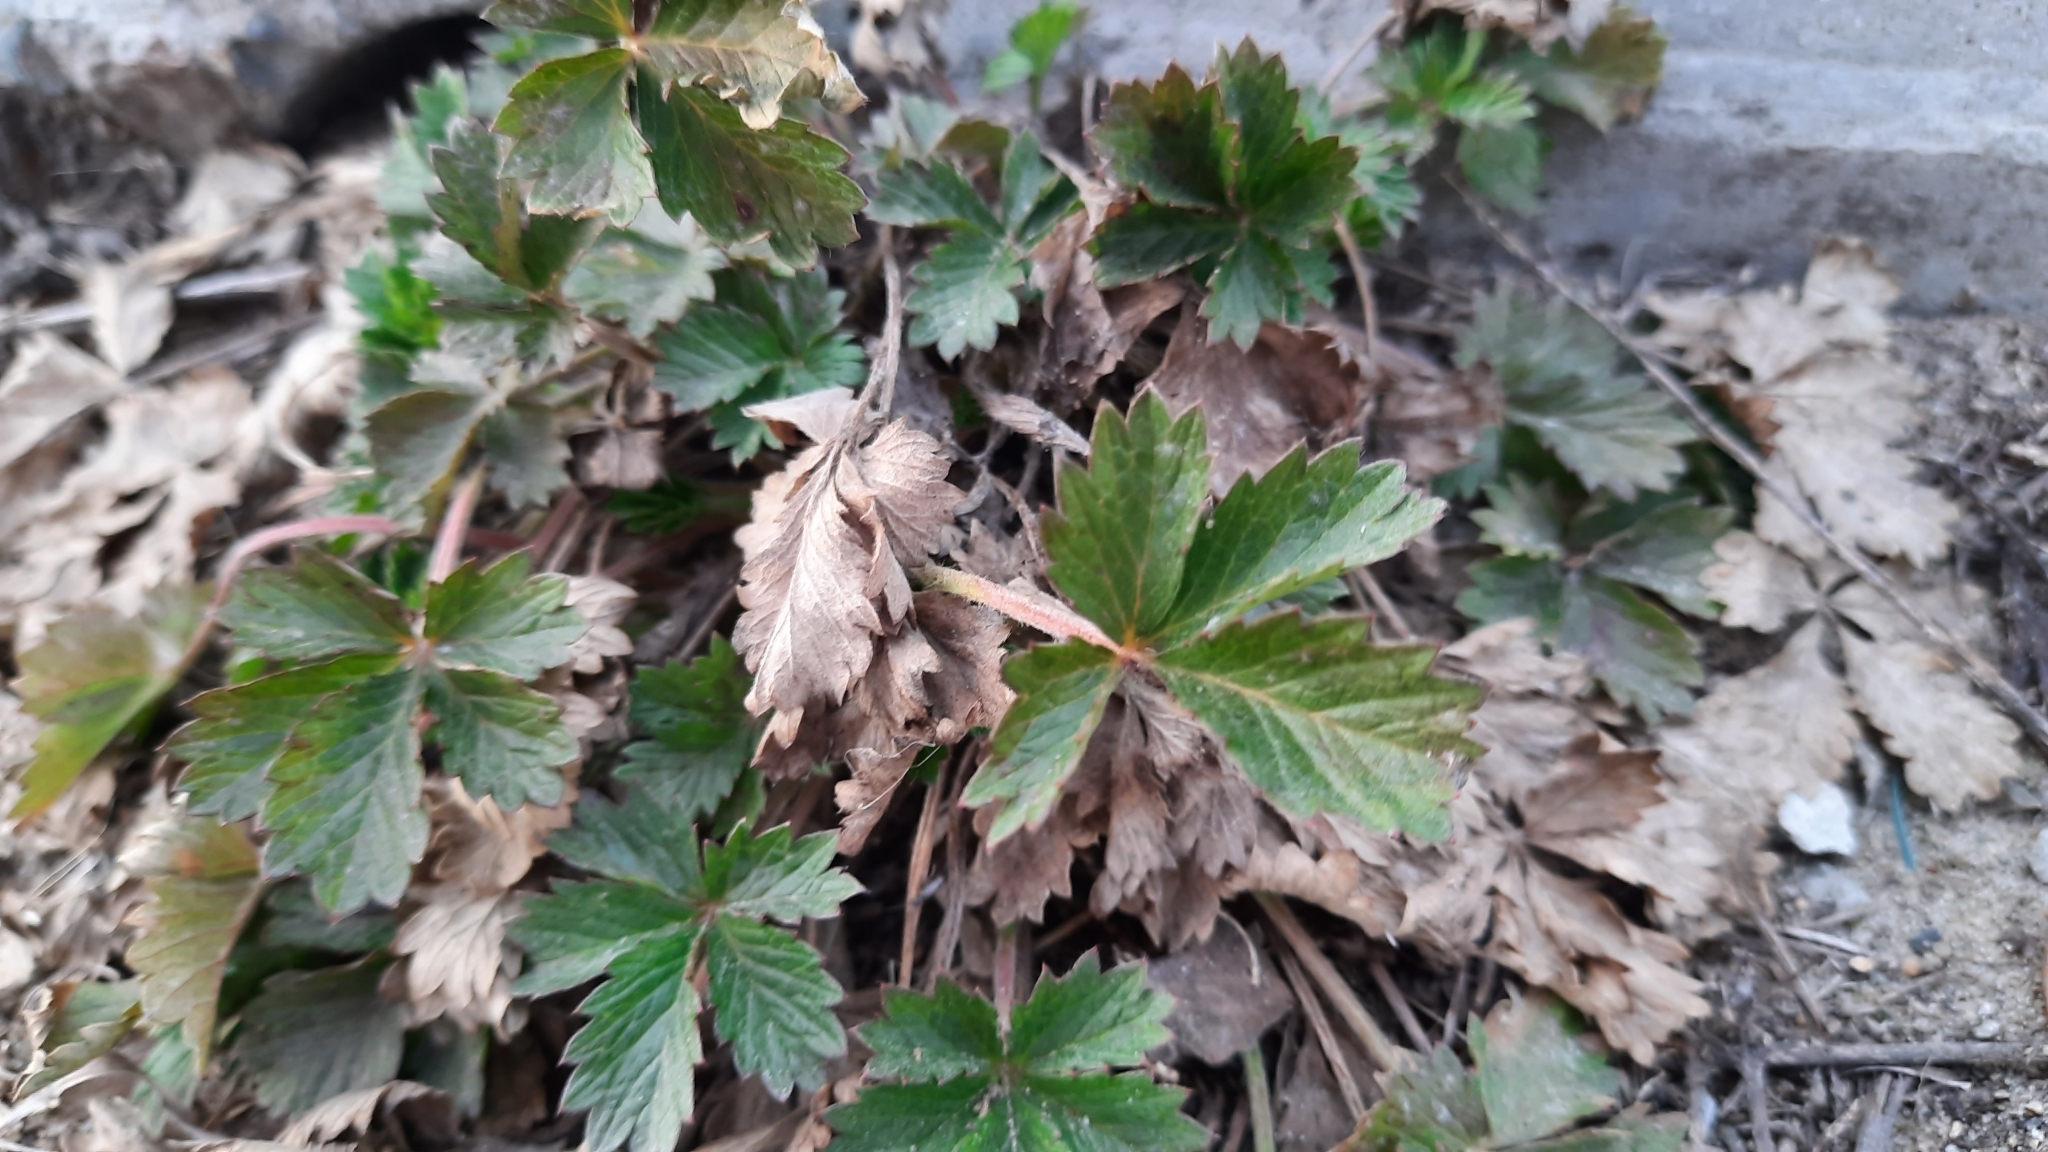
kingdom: Plantae
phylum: Tracheophyta
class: Magnoliopsida
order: Rosales
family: Rosaceae
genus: Potentilla
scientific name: Potentilla intermedia
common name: Downy cinquefoil
